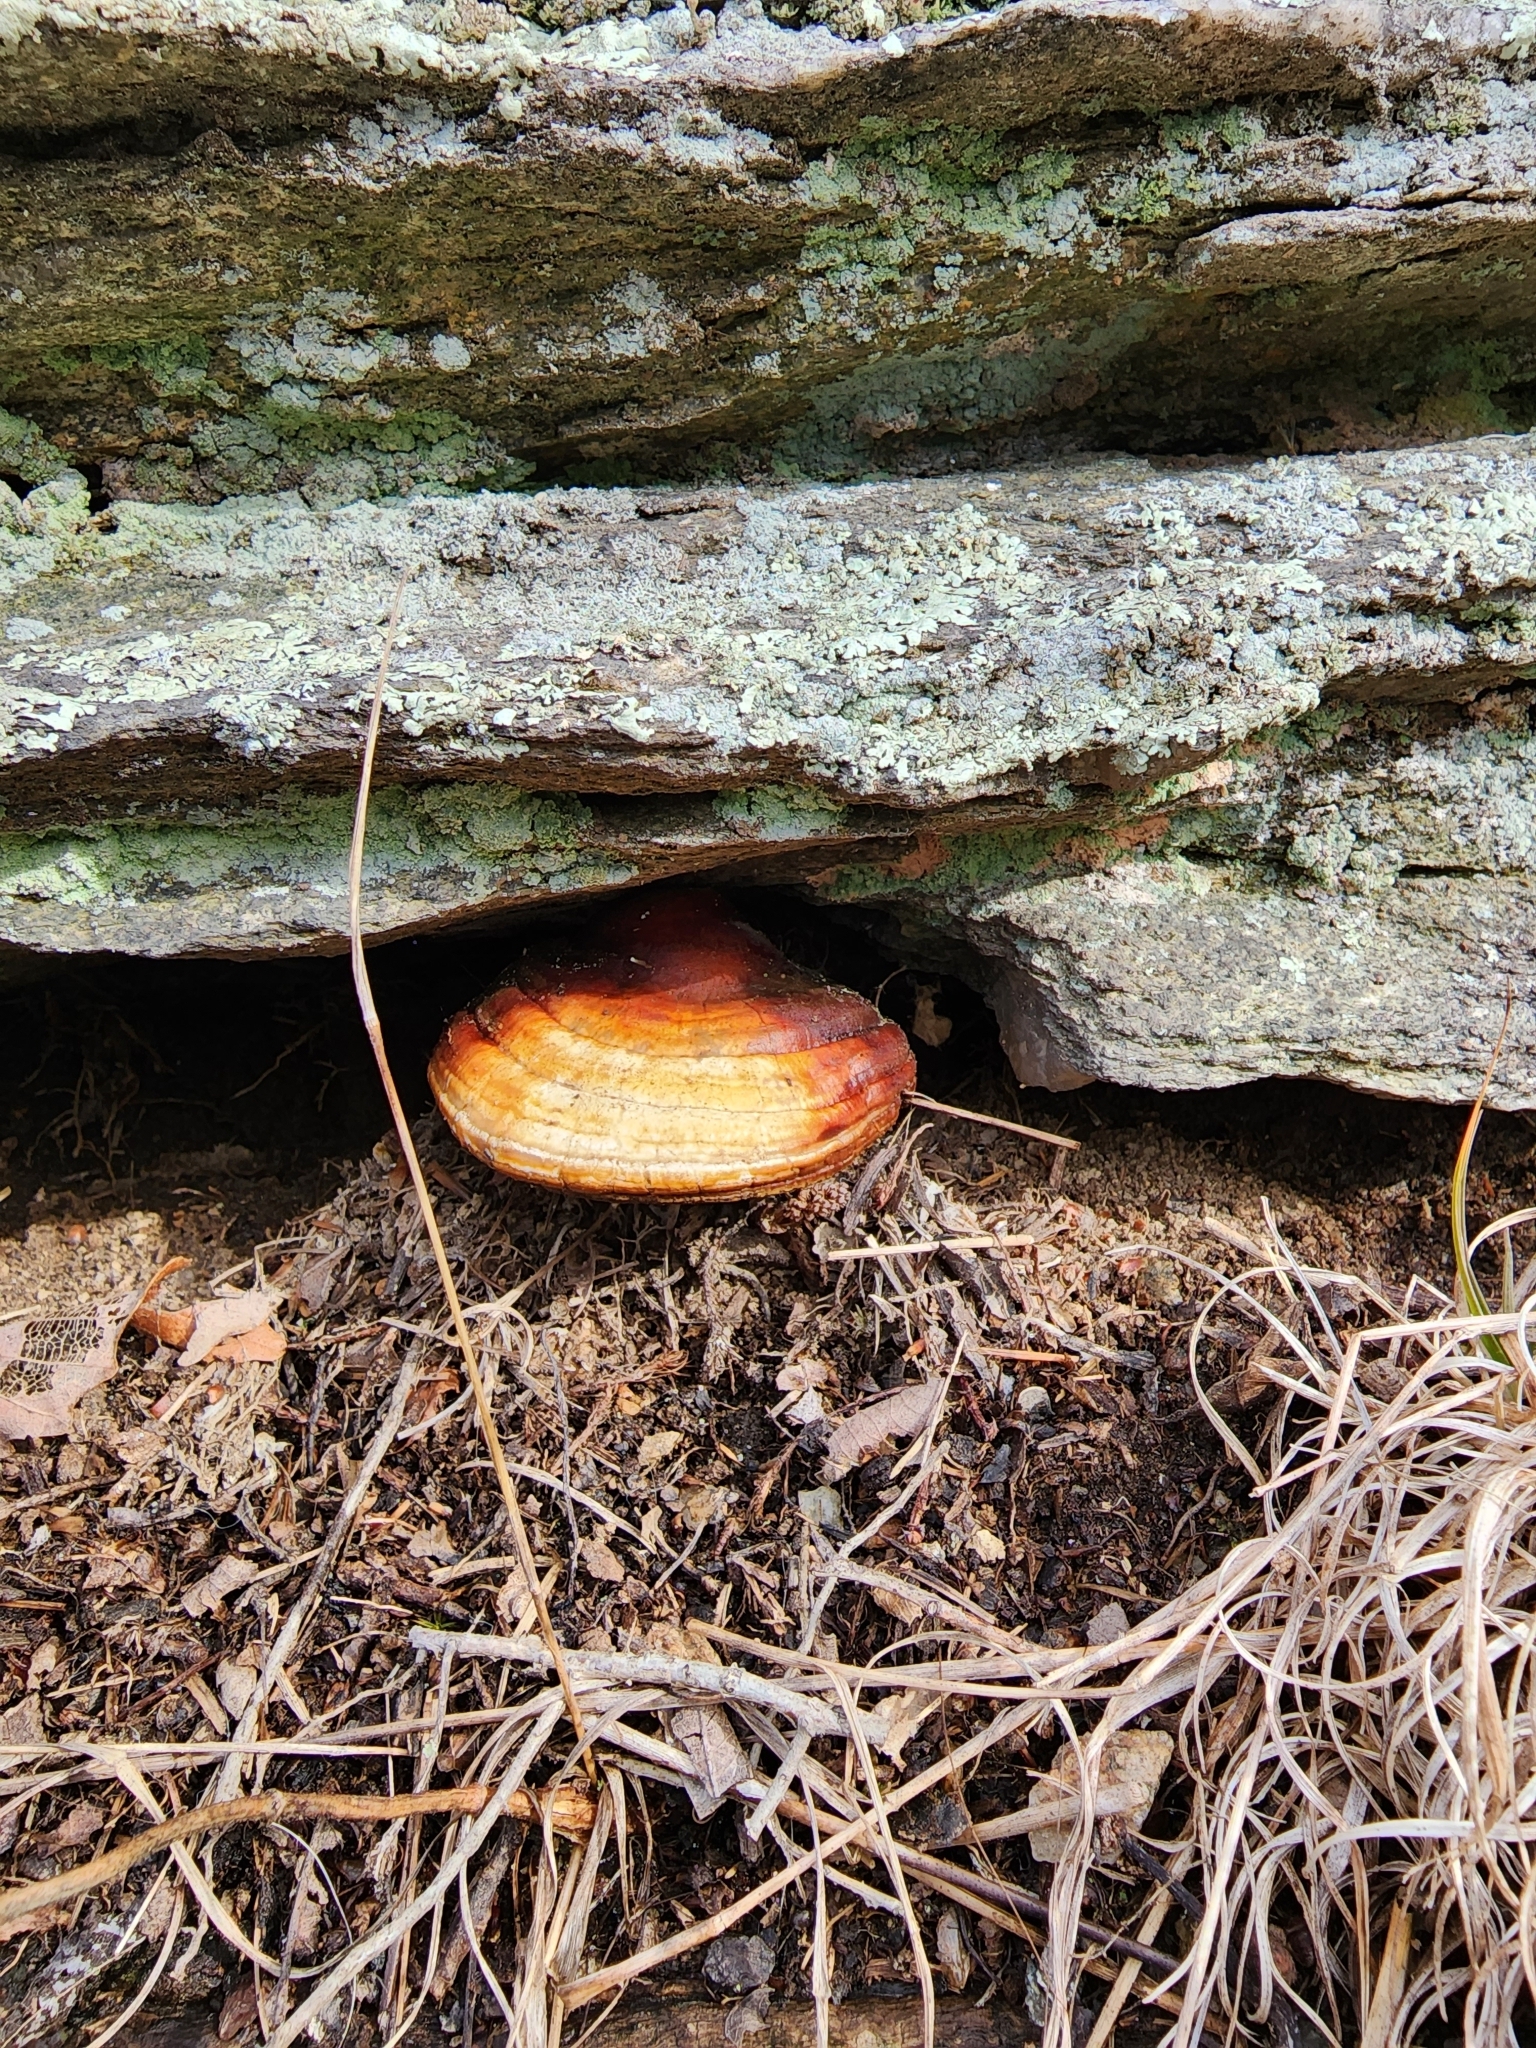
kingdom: Fungi
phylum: Basidiomycota
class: Agaricomycetes
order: Polyporales
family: Polyporaceae
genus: Ganoderma
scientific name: Ganoderma tsugae
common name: Hemlock varnish shelf
